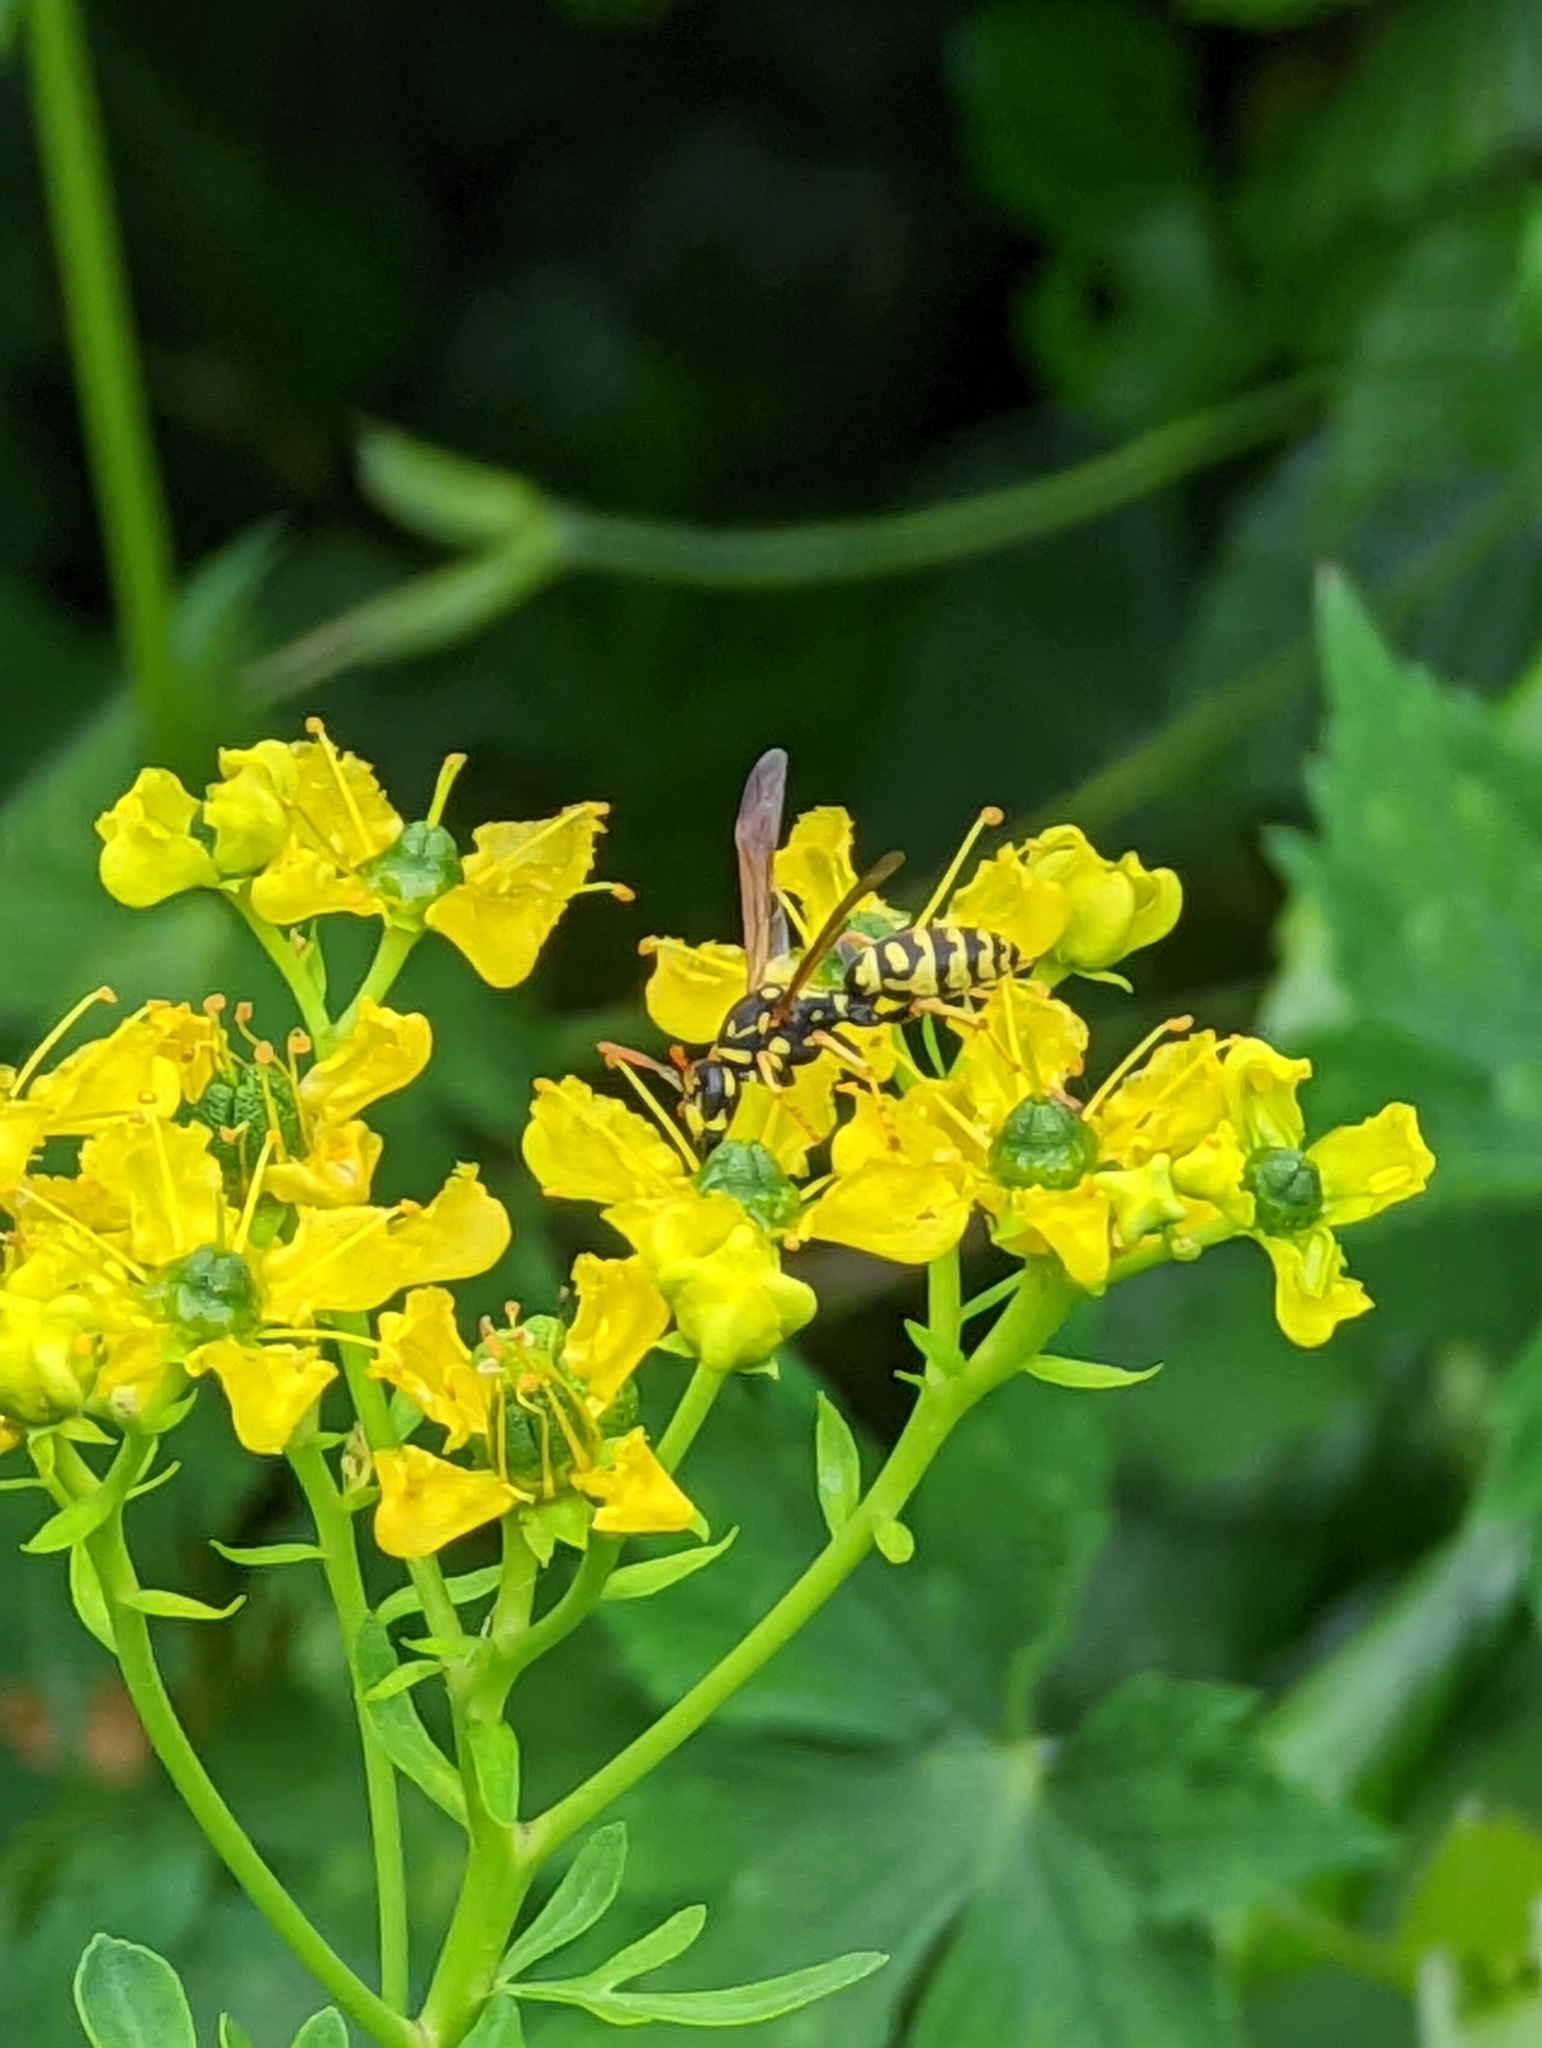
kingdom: Animalia
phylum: Arthropoda
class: Insecta
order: Hymenoptera
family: Eumenidae
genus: Polistes
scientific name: Polistes dominula
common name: Paper wasp
